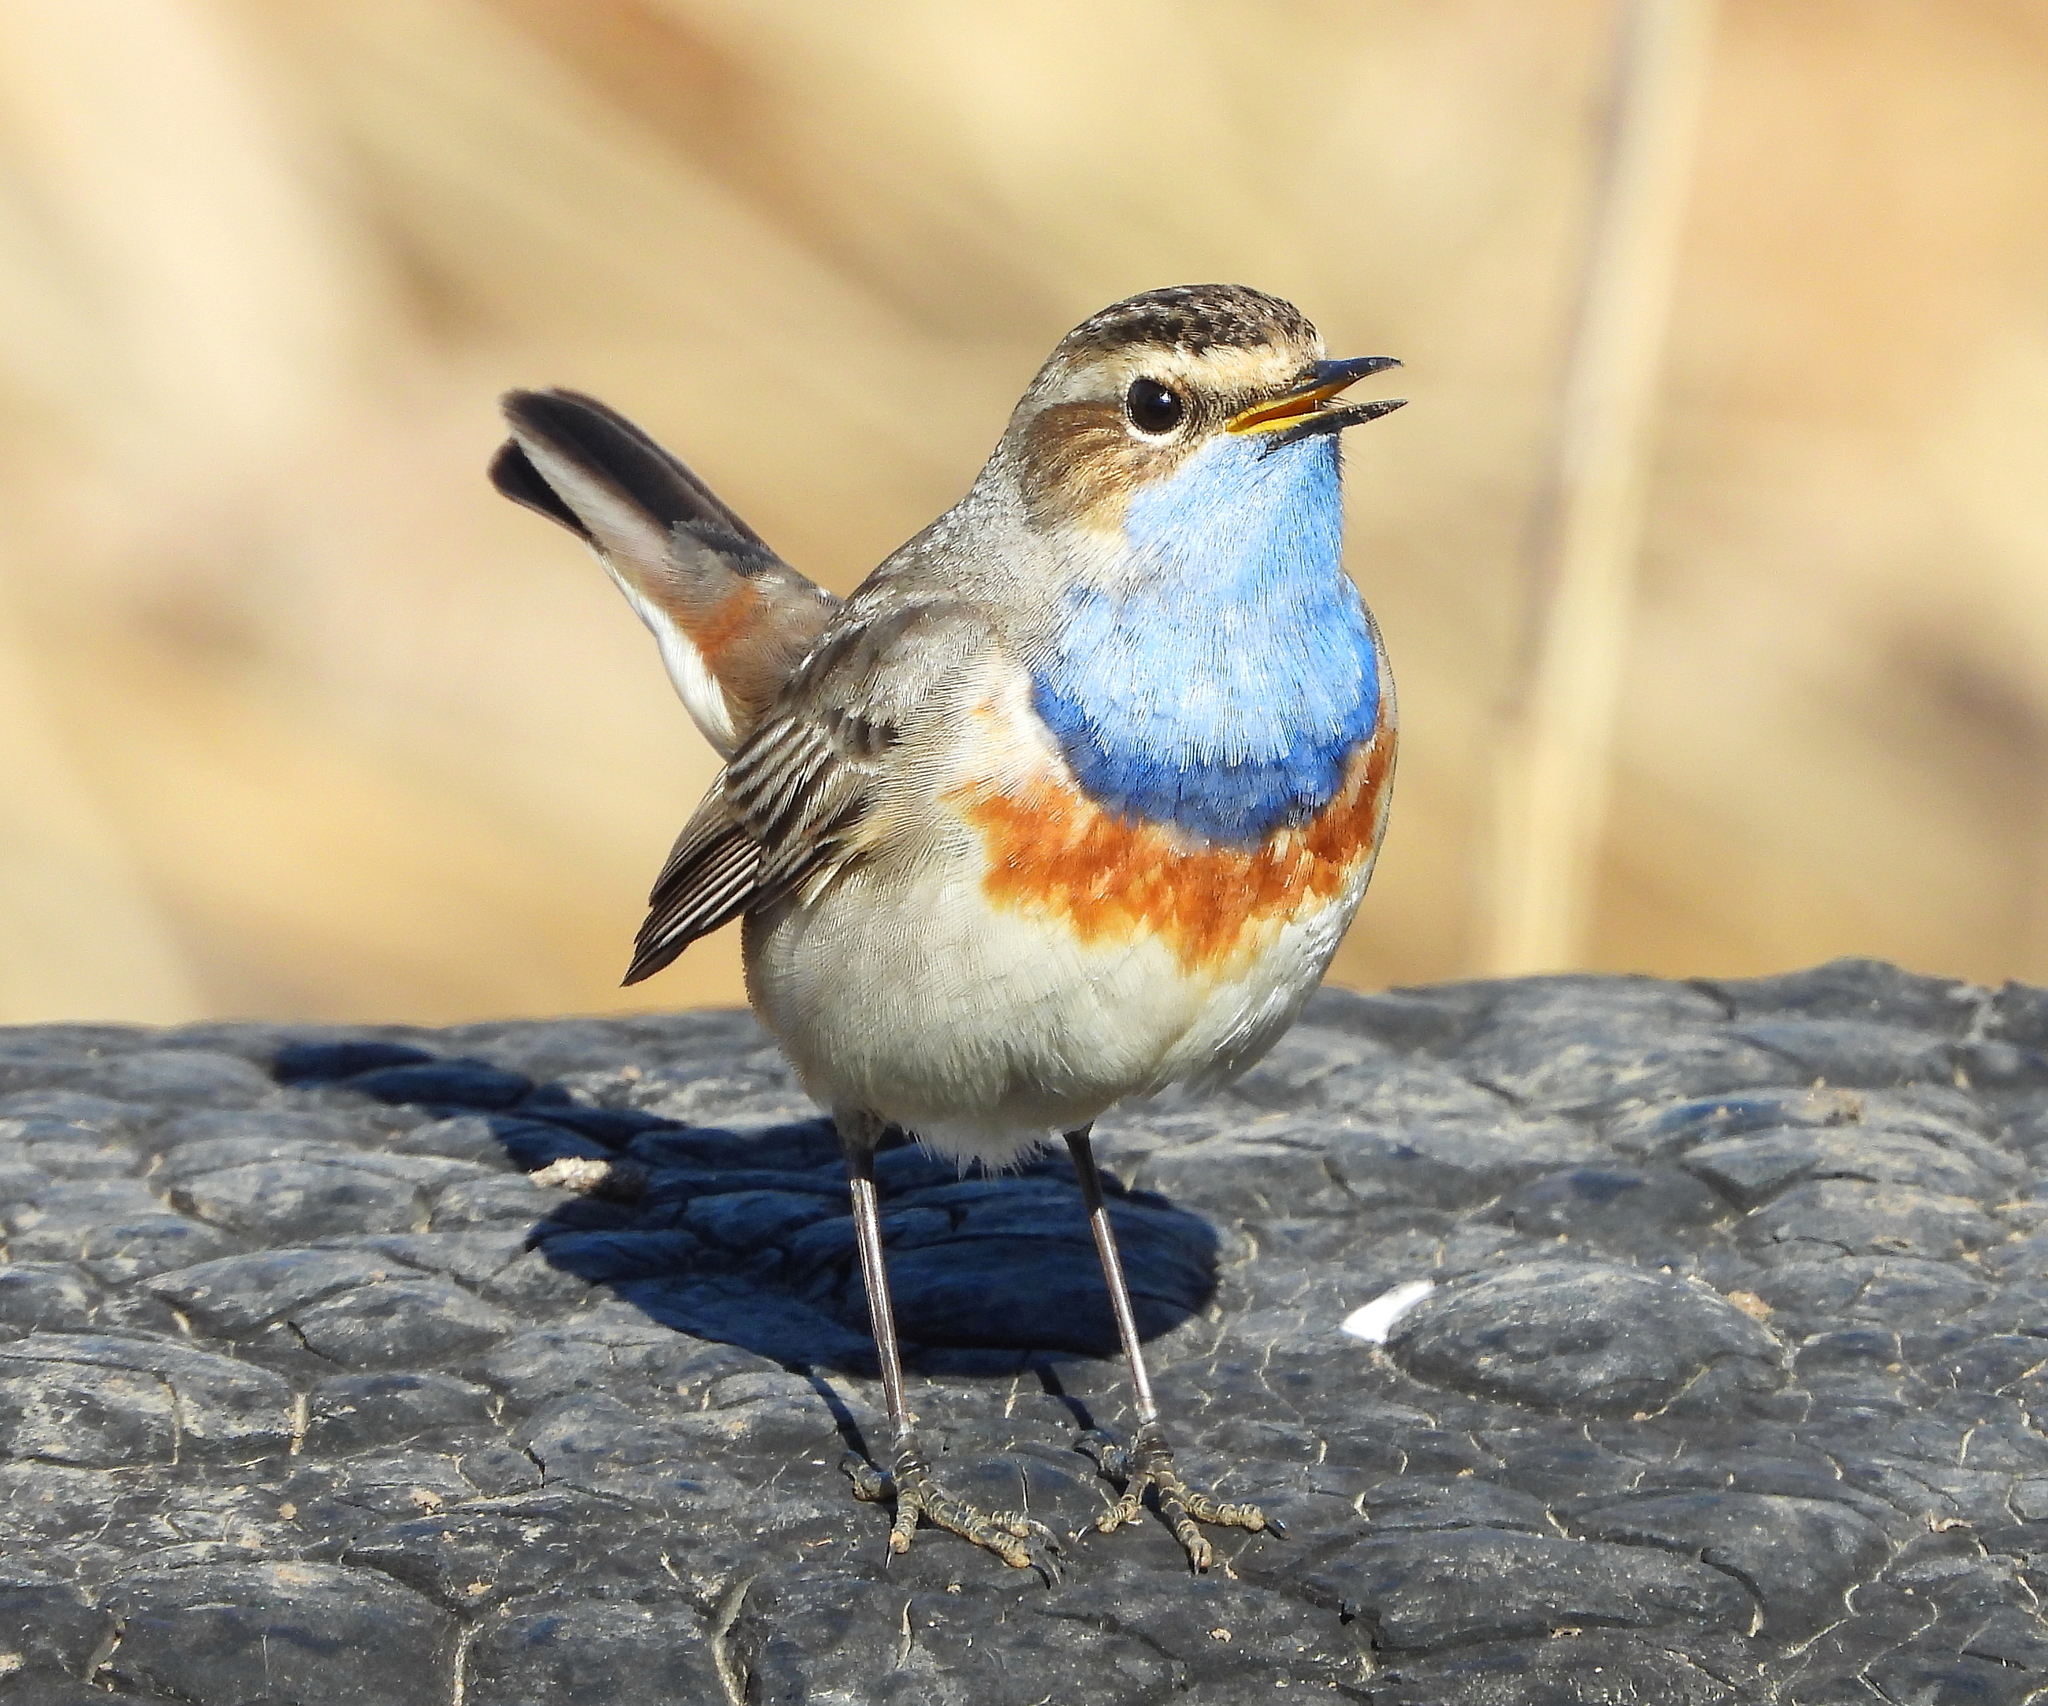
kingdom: Animalia
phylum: Chordata
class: Aves
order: Passeriformes
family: Muscicapidae
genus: Luscinia
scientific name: Luscinia svecica
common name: Bluethroat
